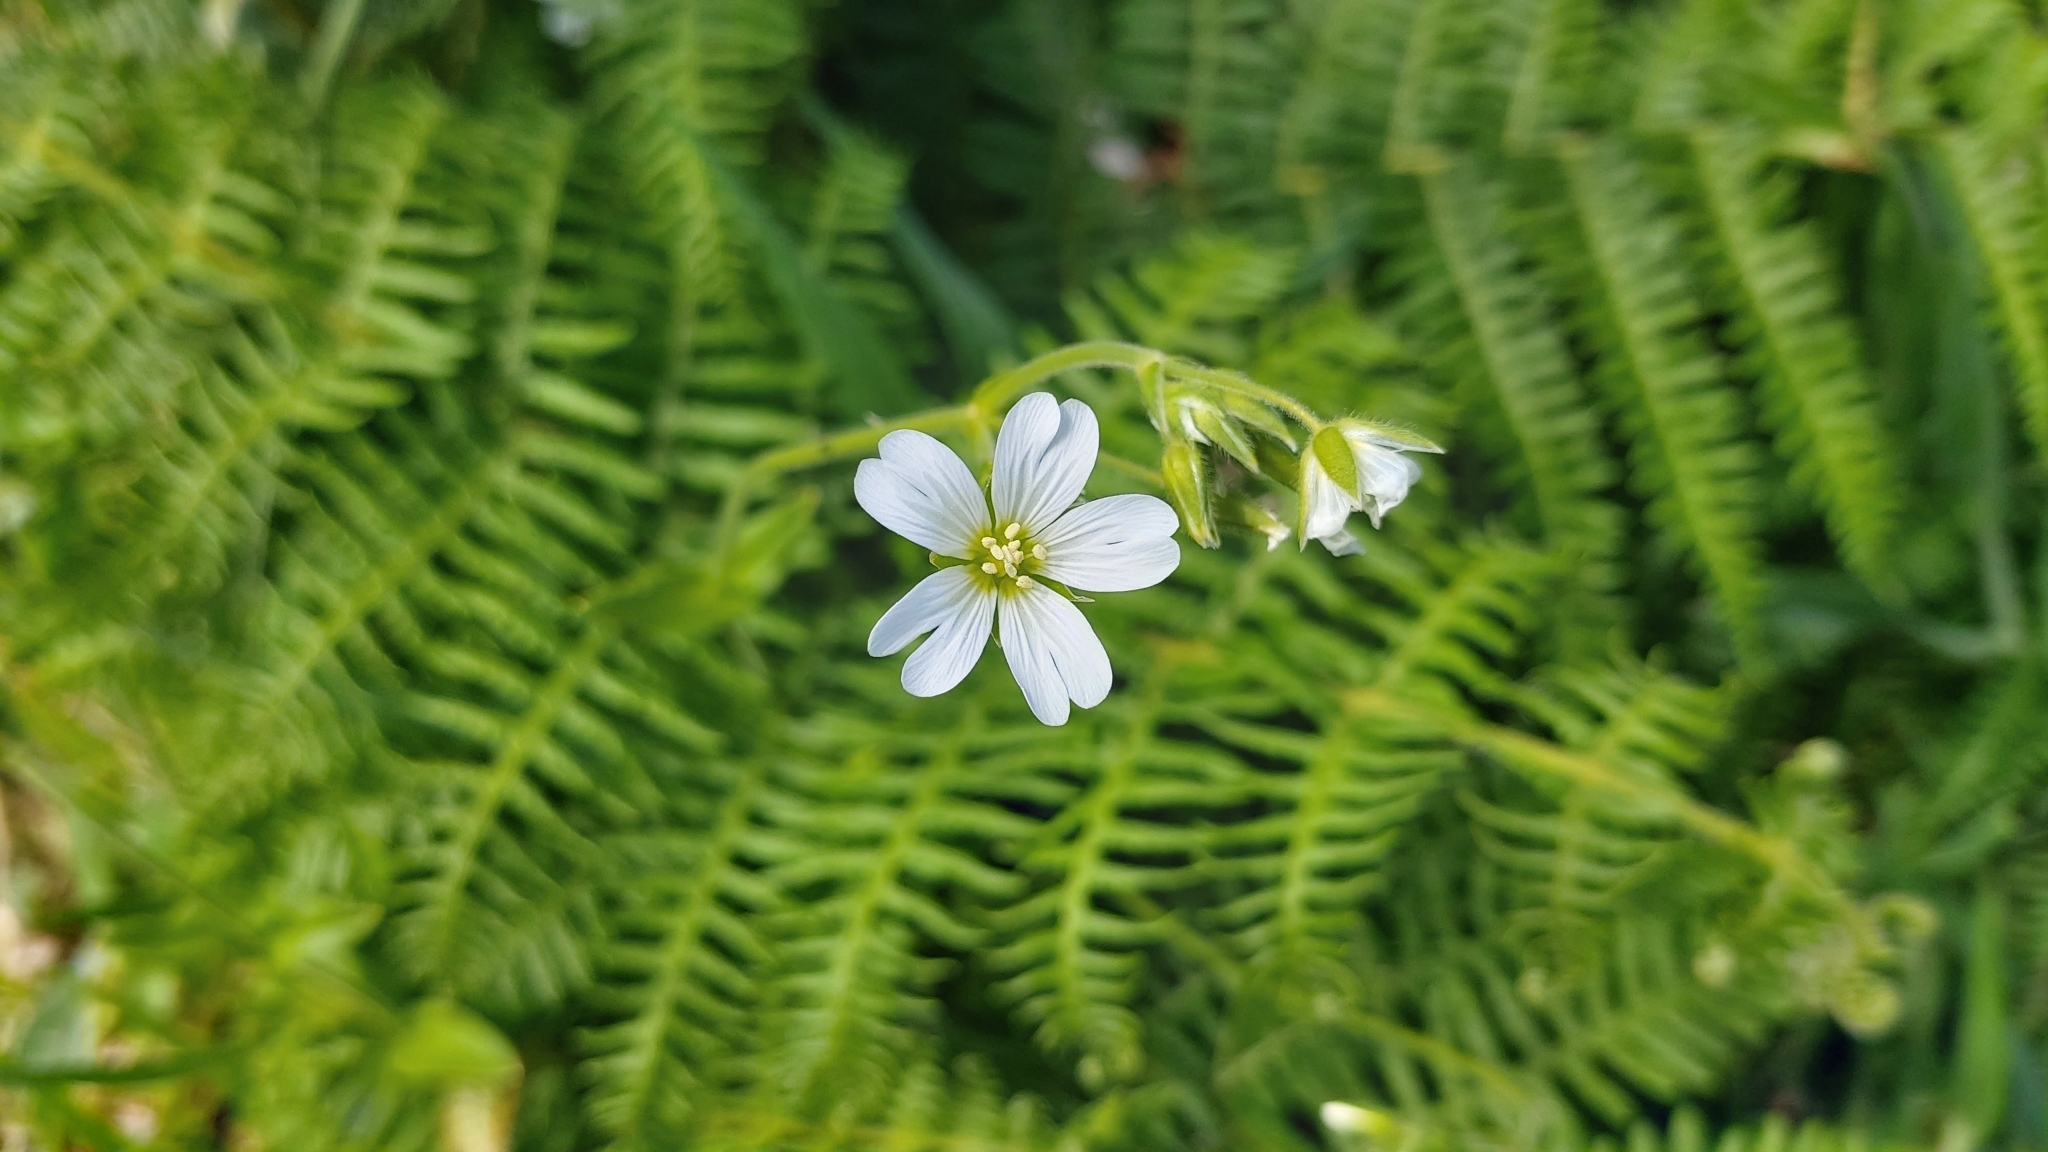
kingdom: Plantae
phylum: Tracheophyta
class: Magnoliopsida
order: Caryophyllales
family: Caryophyllaceae
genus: Cerastium
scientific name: Cerastium azoricum
